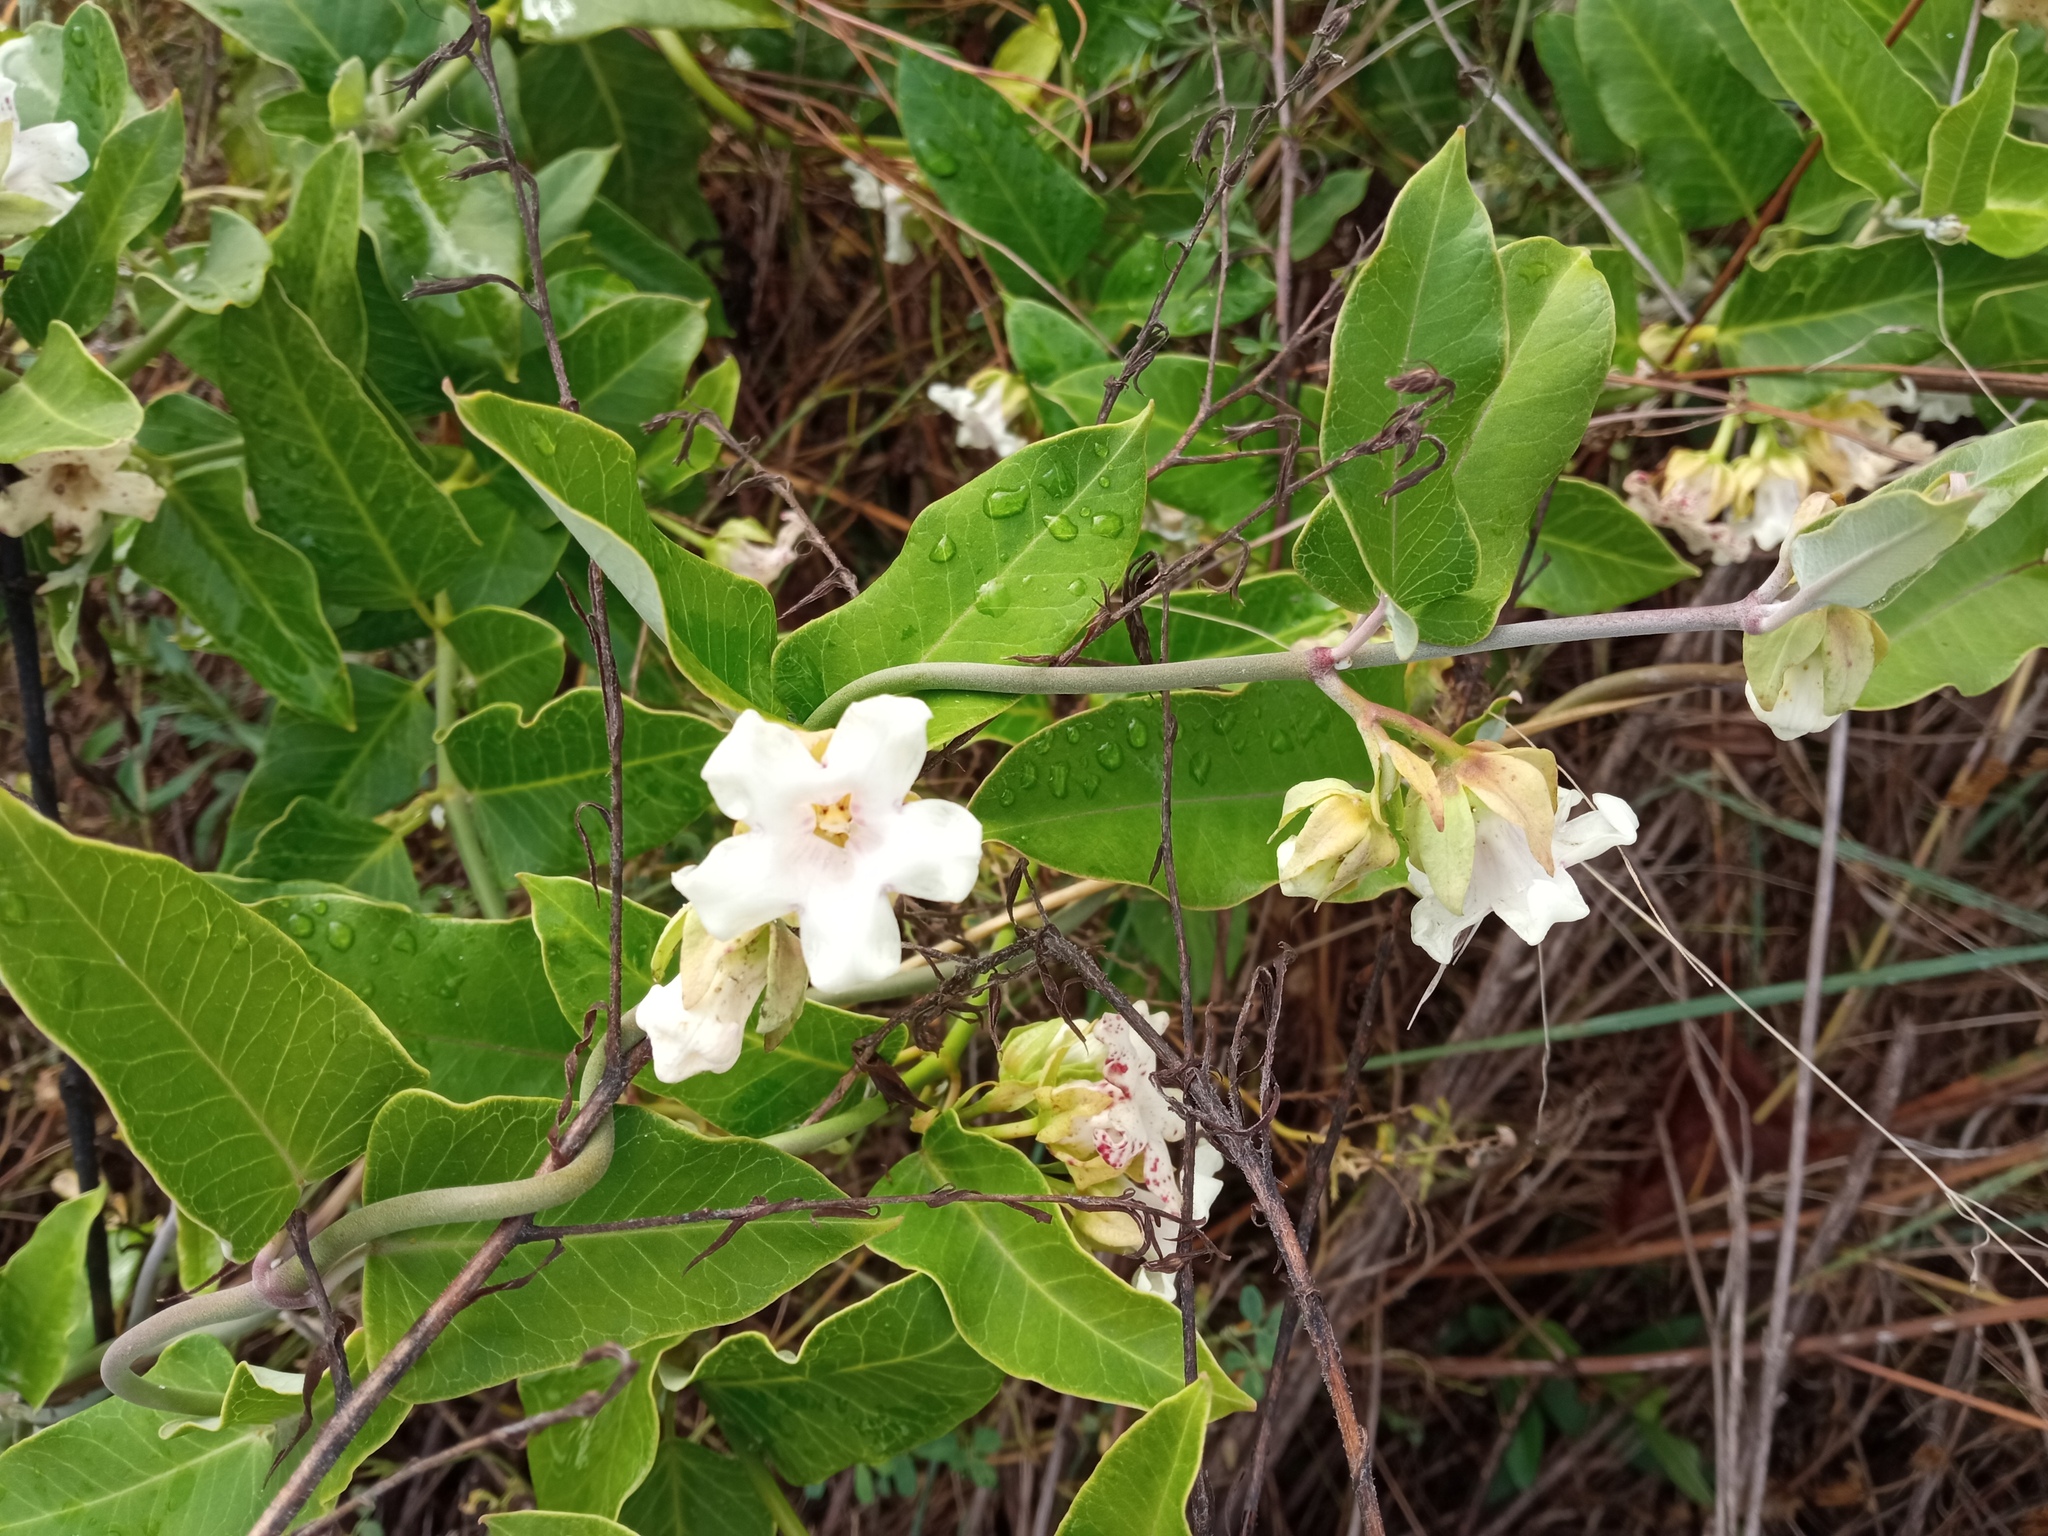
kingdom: Plantae
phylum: Tracheophyta
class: Magnoliopsida
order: Gentianales
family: Apocynaceae
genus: Araujia
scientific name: Araujia sericifera
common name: White bladderflower
